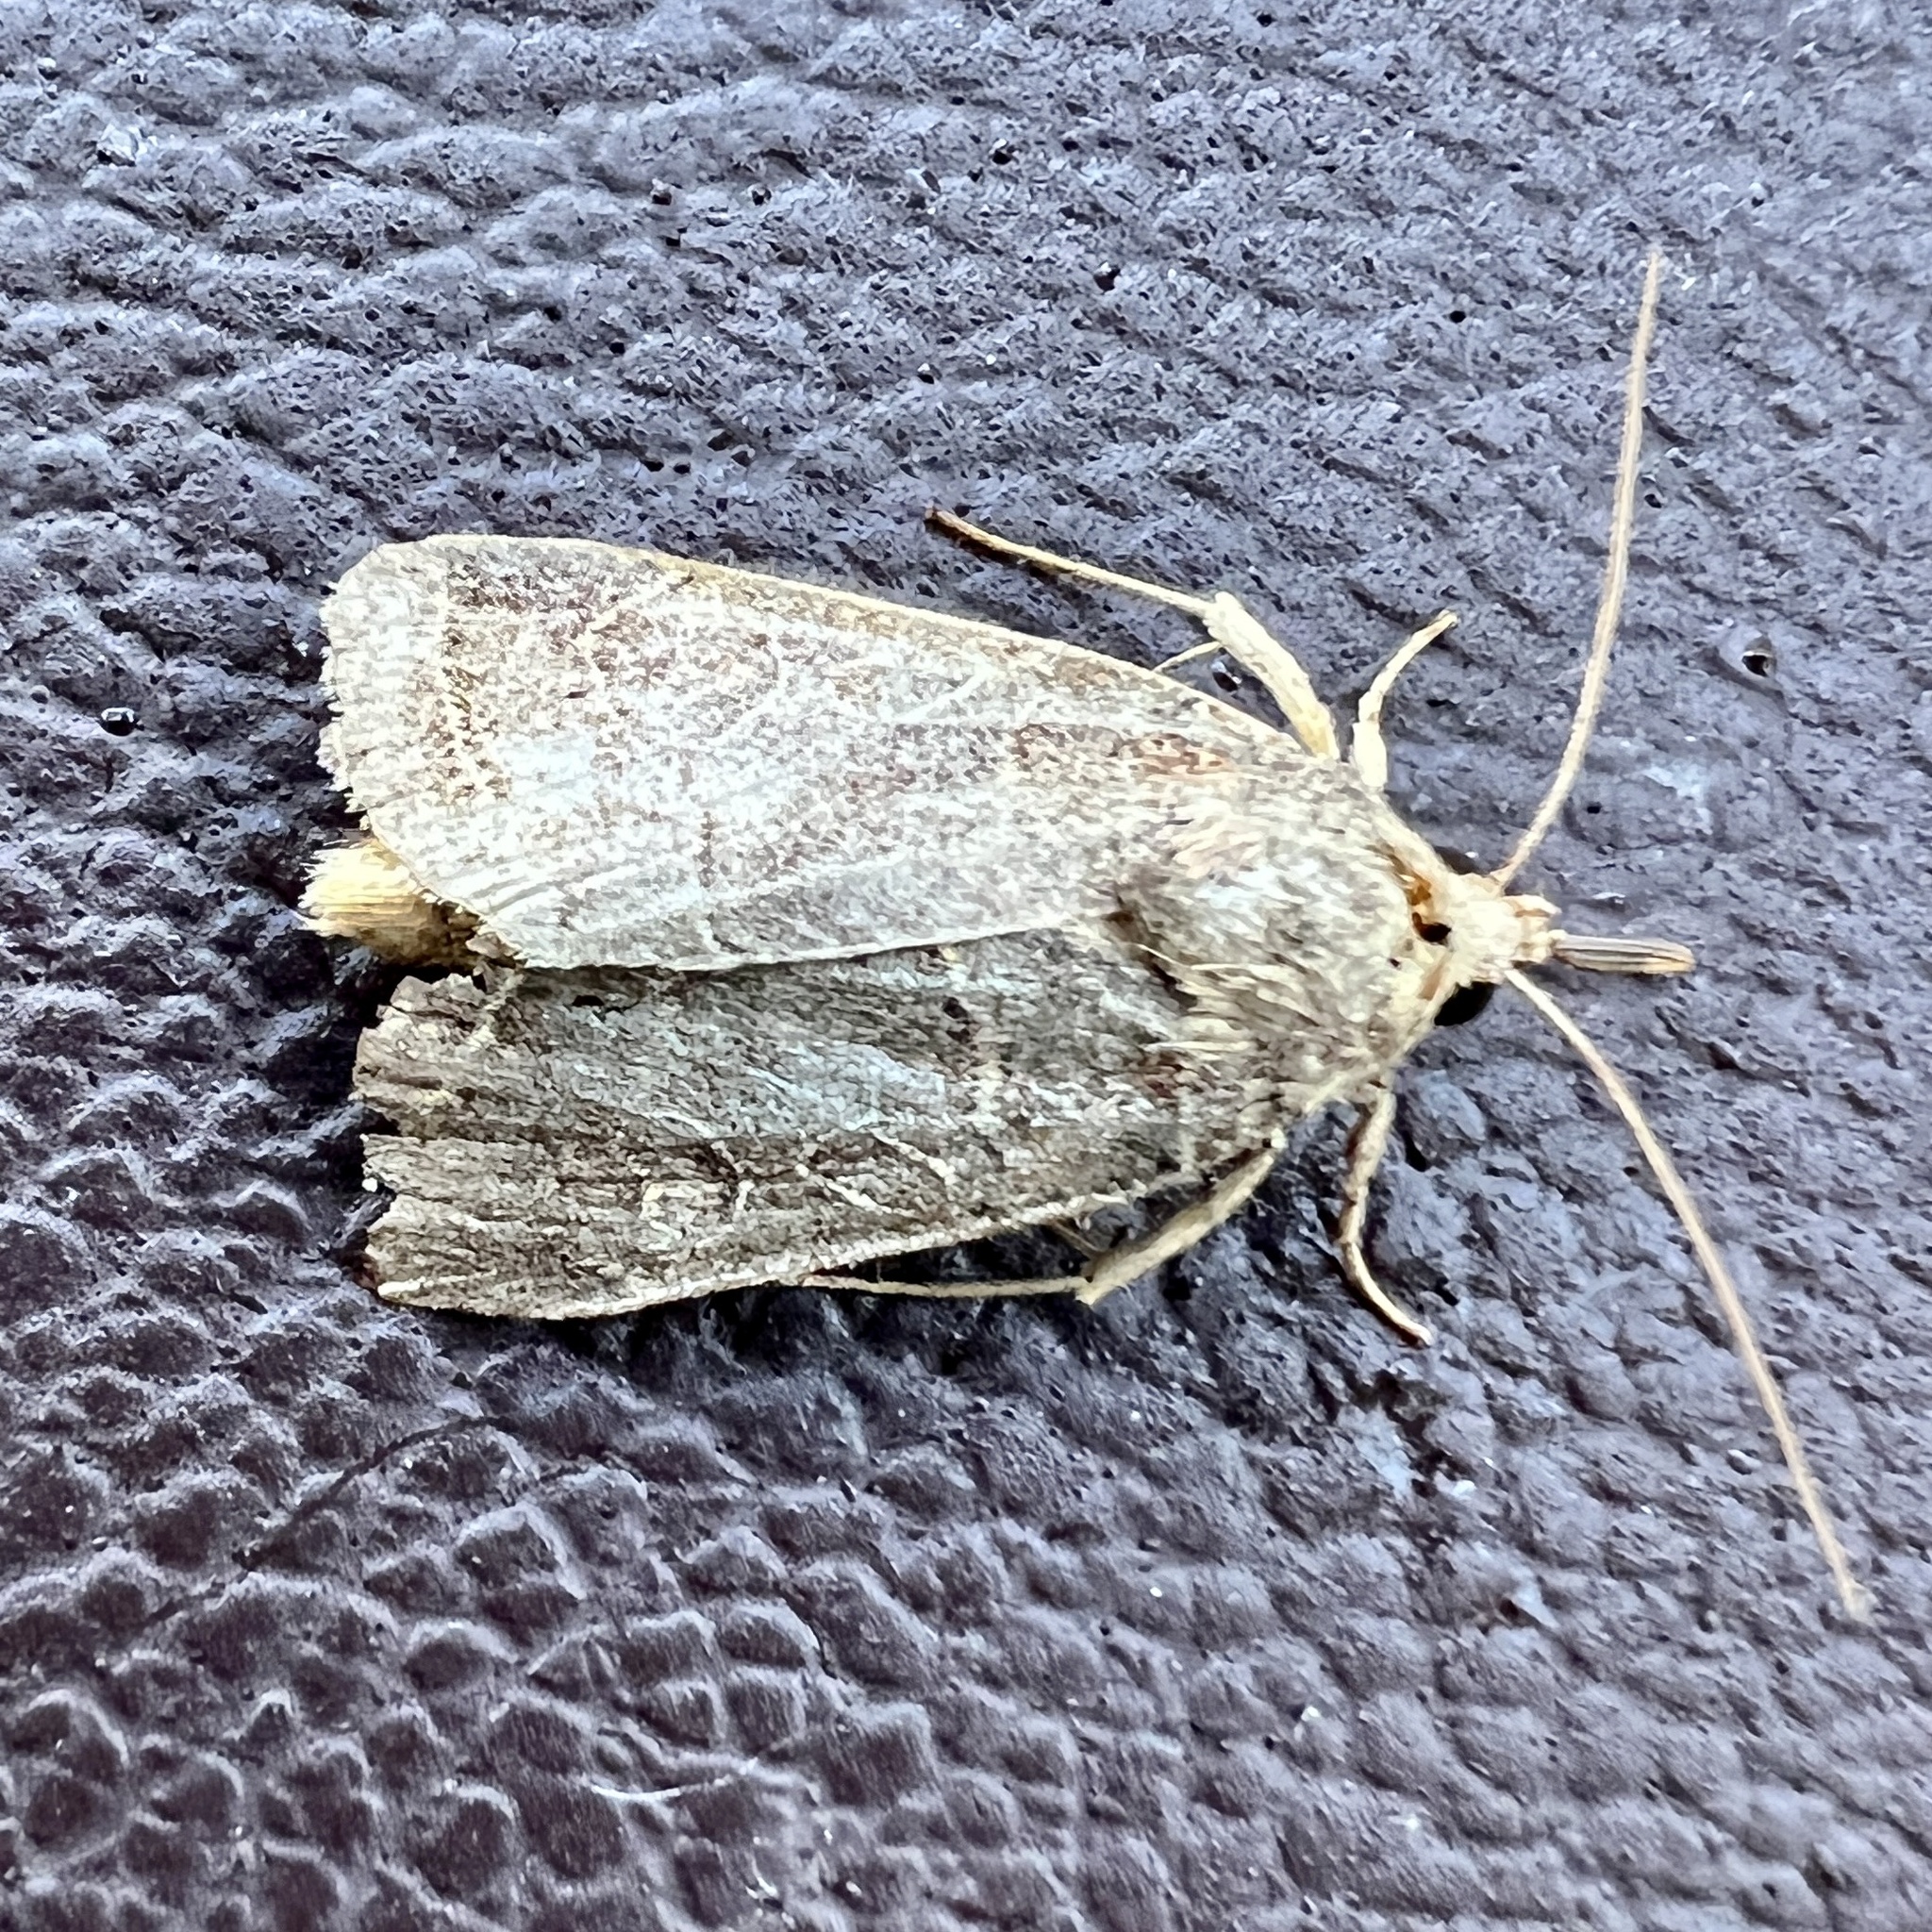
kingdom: Animalia
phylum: Arthropoda
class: Insecta
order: Lepidoptera
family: Noctuidae
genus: Orthodes
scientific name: Orthodes majuscula
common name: Rustic quaker
